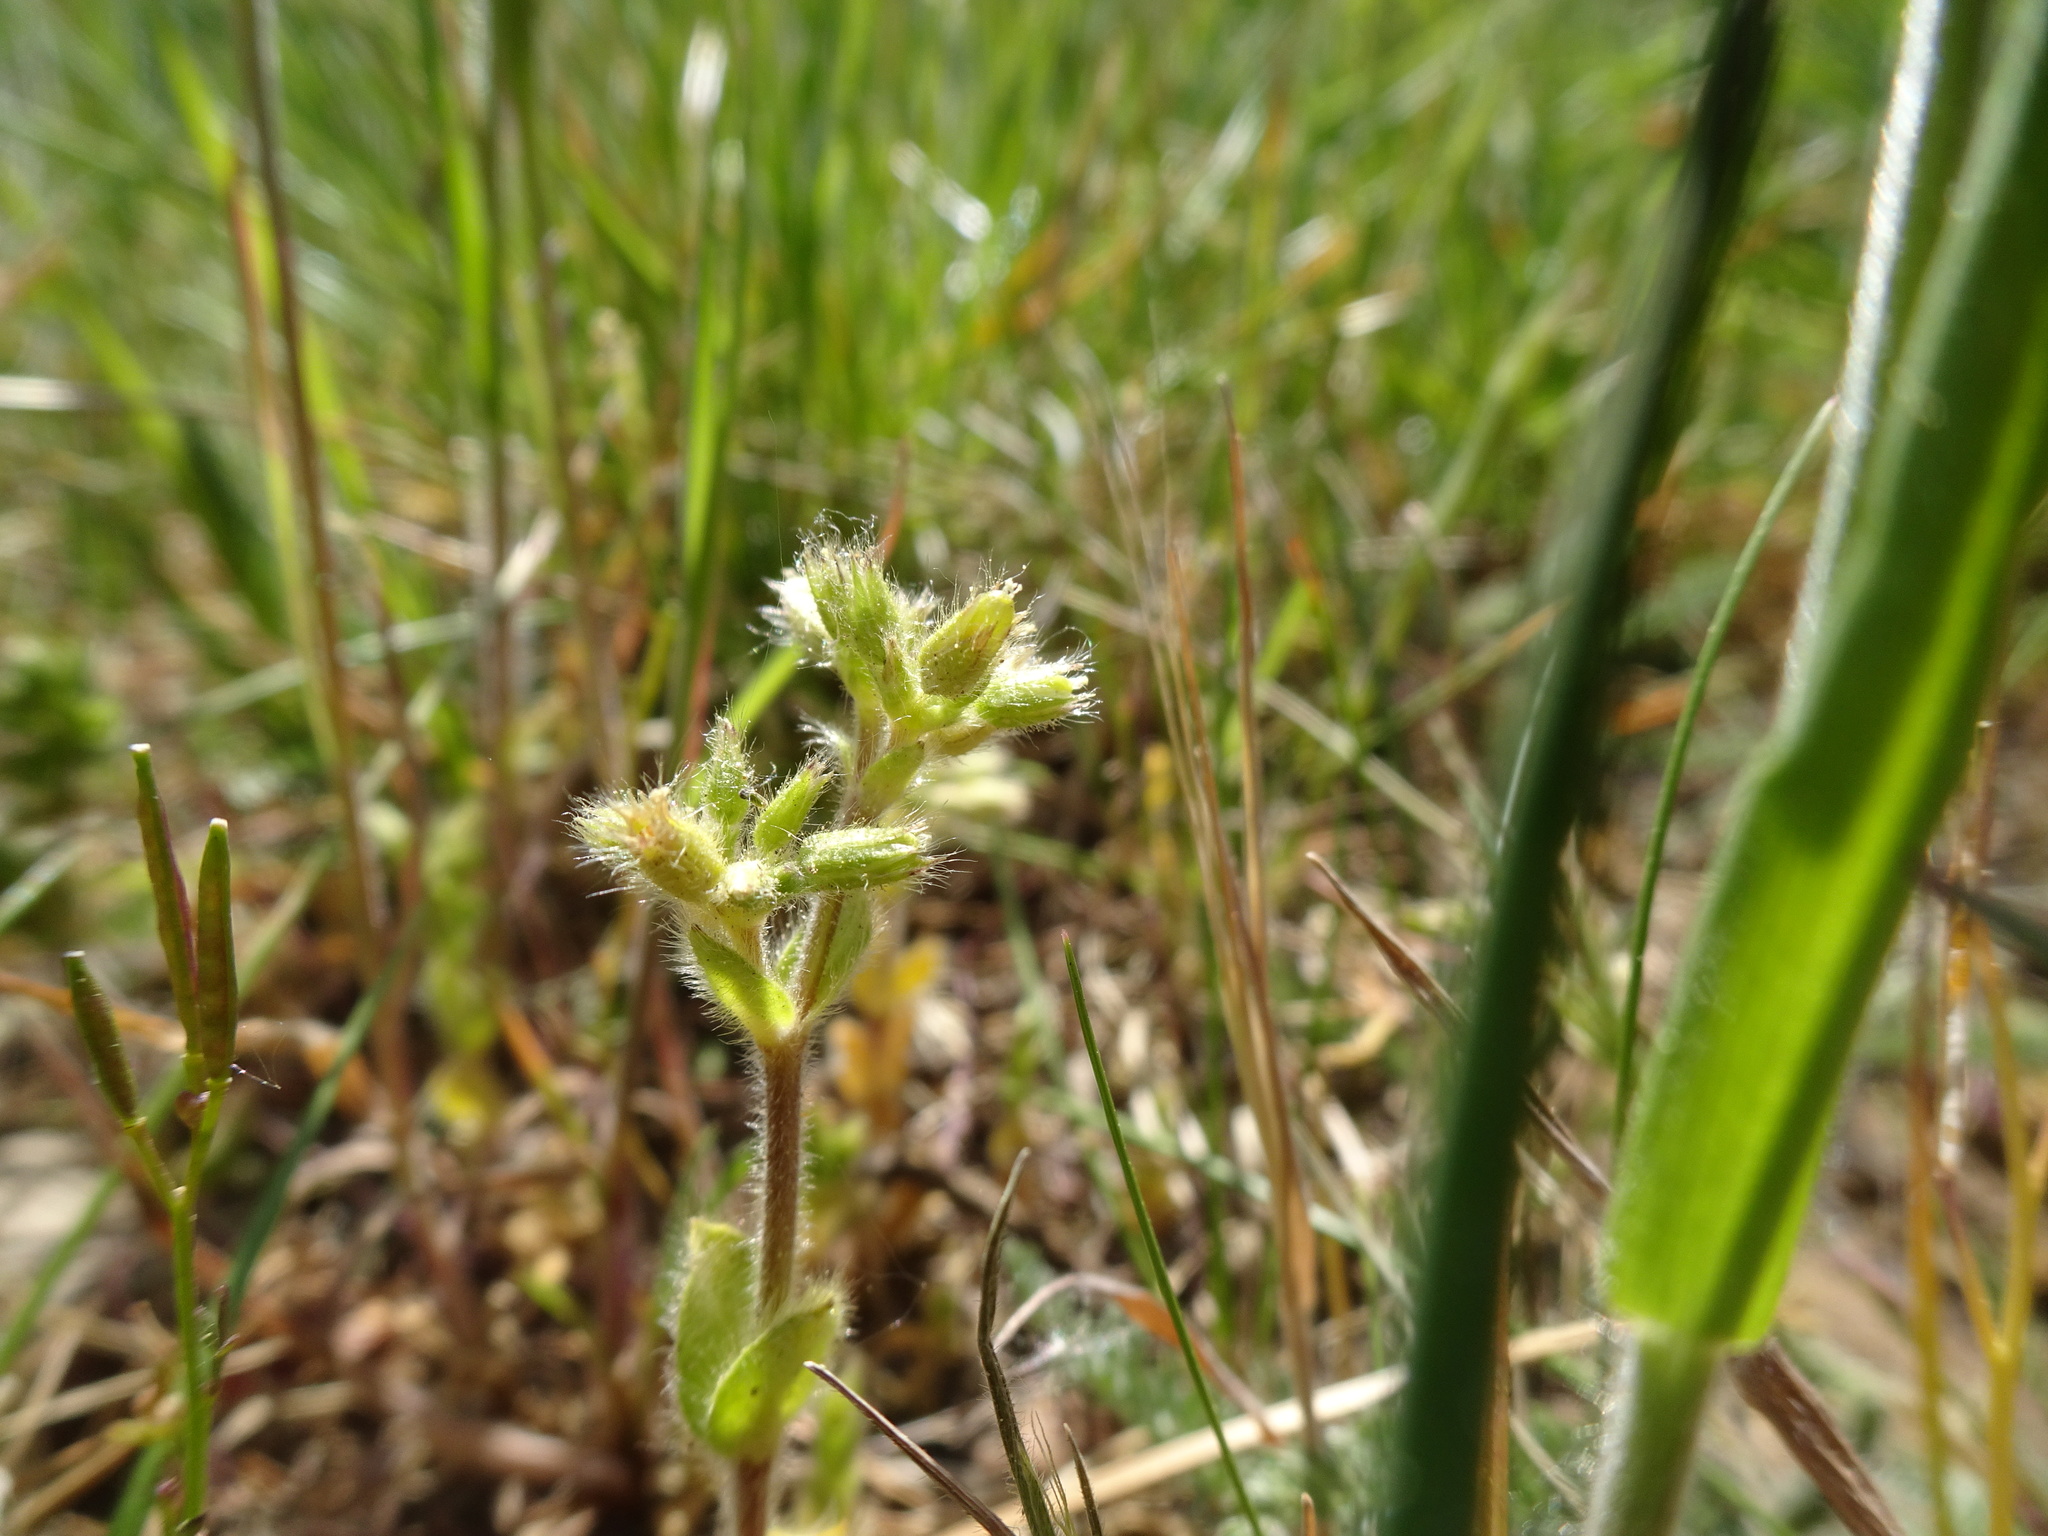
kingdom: Plantae
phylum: Tracheophyta
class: Magnoliopsida
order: Caryophyllales
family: Caryophyllaceae
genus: Cerastium
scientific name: Cerastium glomeratum
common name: Sticky chickweed
